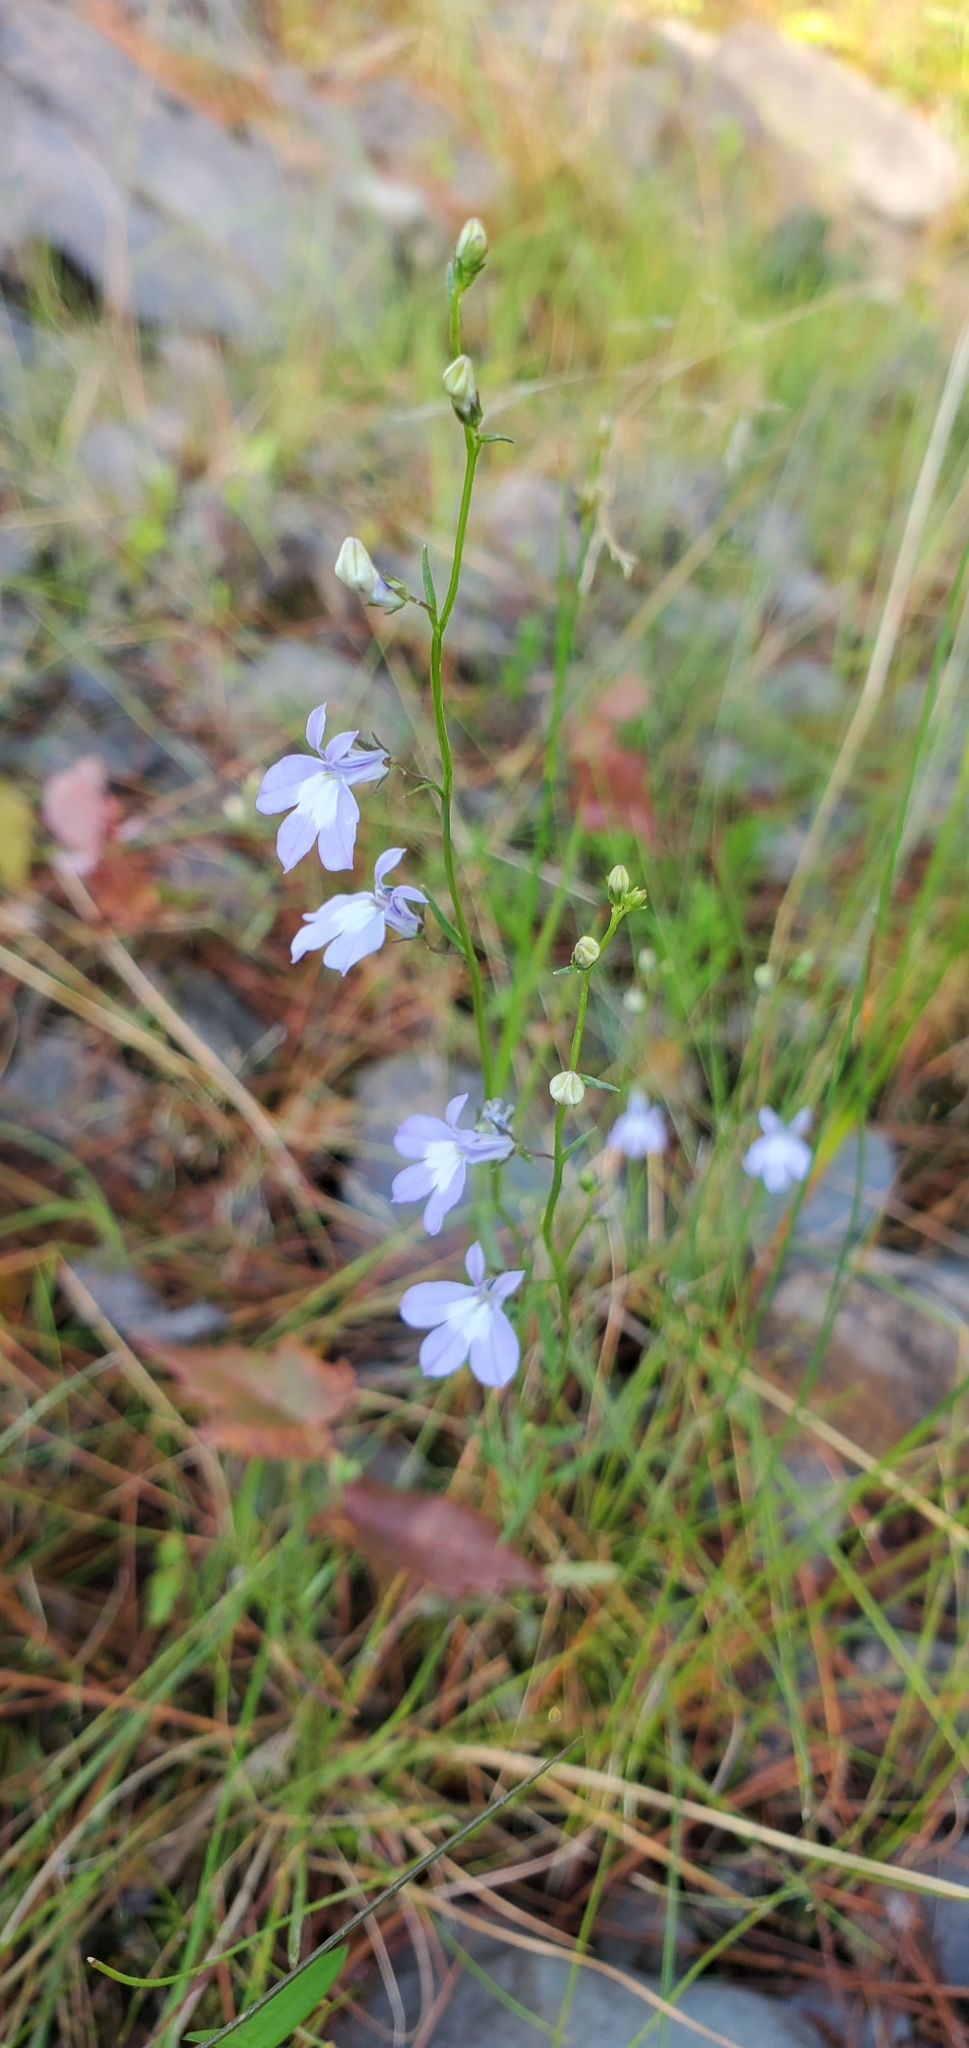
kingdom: Plantae
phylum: Tracheophyta
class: Magnoliopsida
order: Asterales
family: Campanulaceae
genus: Lobelia
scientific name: Lobelia kalmii
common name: Kalm's lobelia
